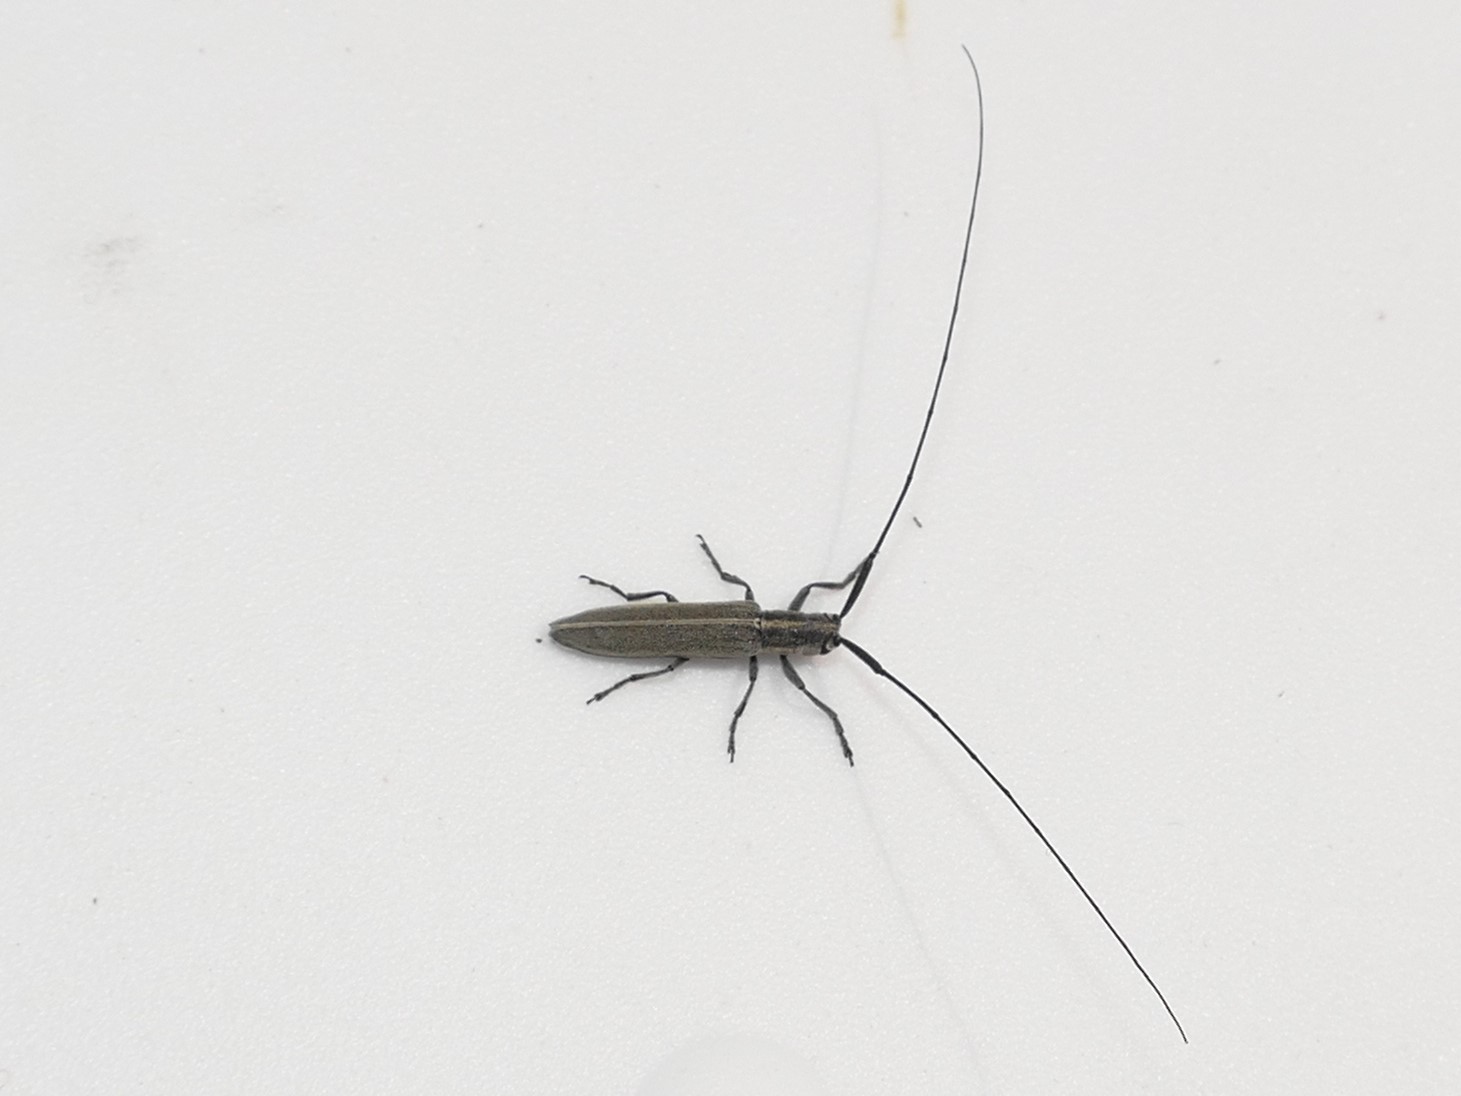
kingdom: Animalia
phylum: Arthropoda
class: Insecta
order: Coleoptera
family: Cerambycidae
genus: Calamobius
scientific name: Calamobius filum
